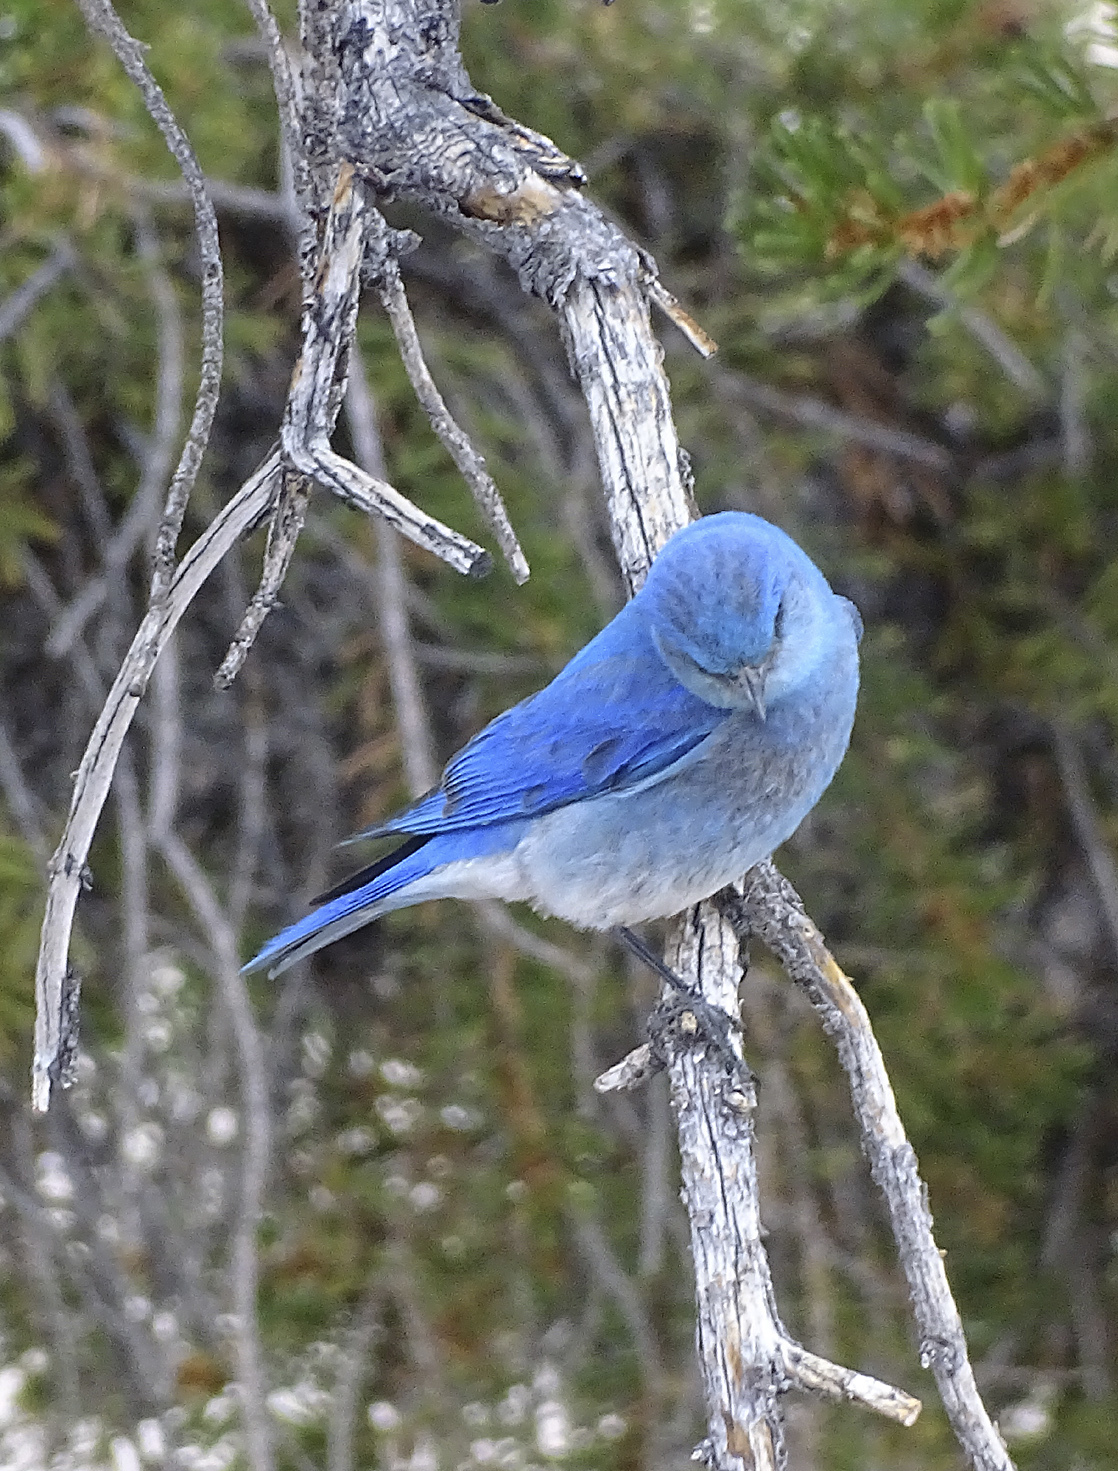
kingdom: Animalia
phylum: Chordata
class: Aves
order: Passeriformes
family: Turdidae
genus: Sialia
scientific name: Sialia currucoides
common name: Mountain bluebird
